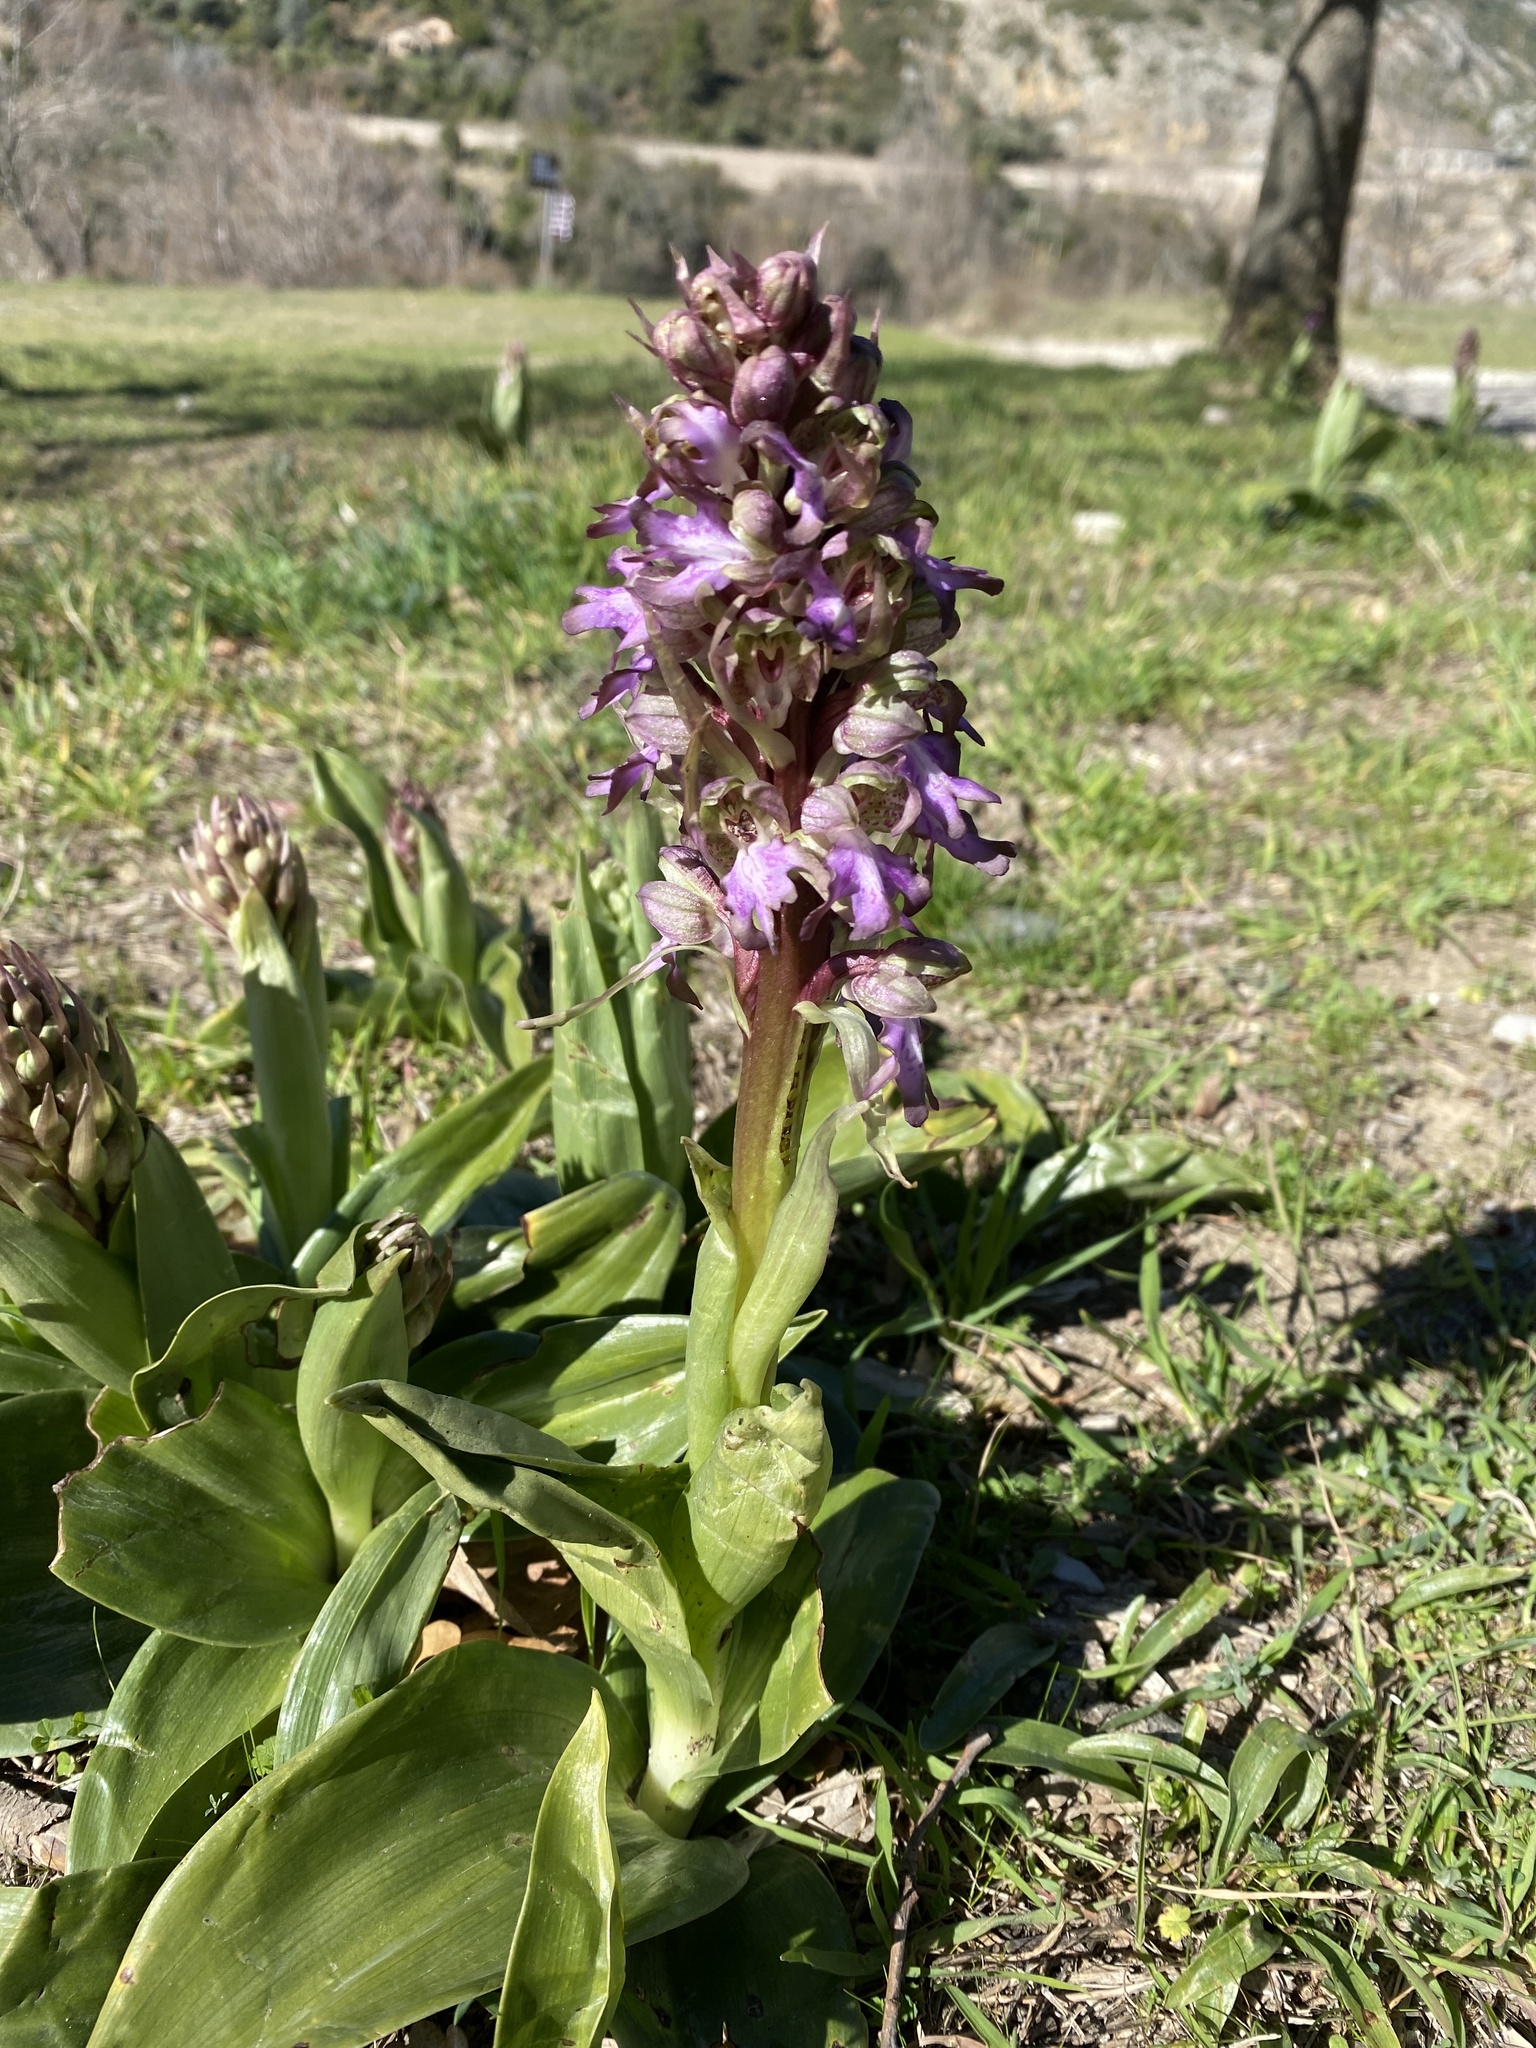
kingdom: Plantae
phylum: Tracheophyta
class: Liliopsida
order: Asparagales
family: Orchidaceae
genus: Himantoglossum
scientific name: Himantoglossum robertianum
